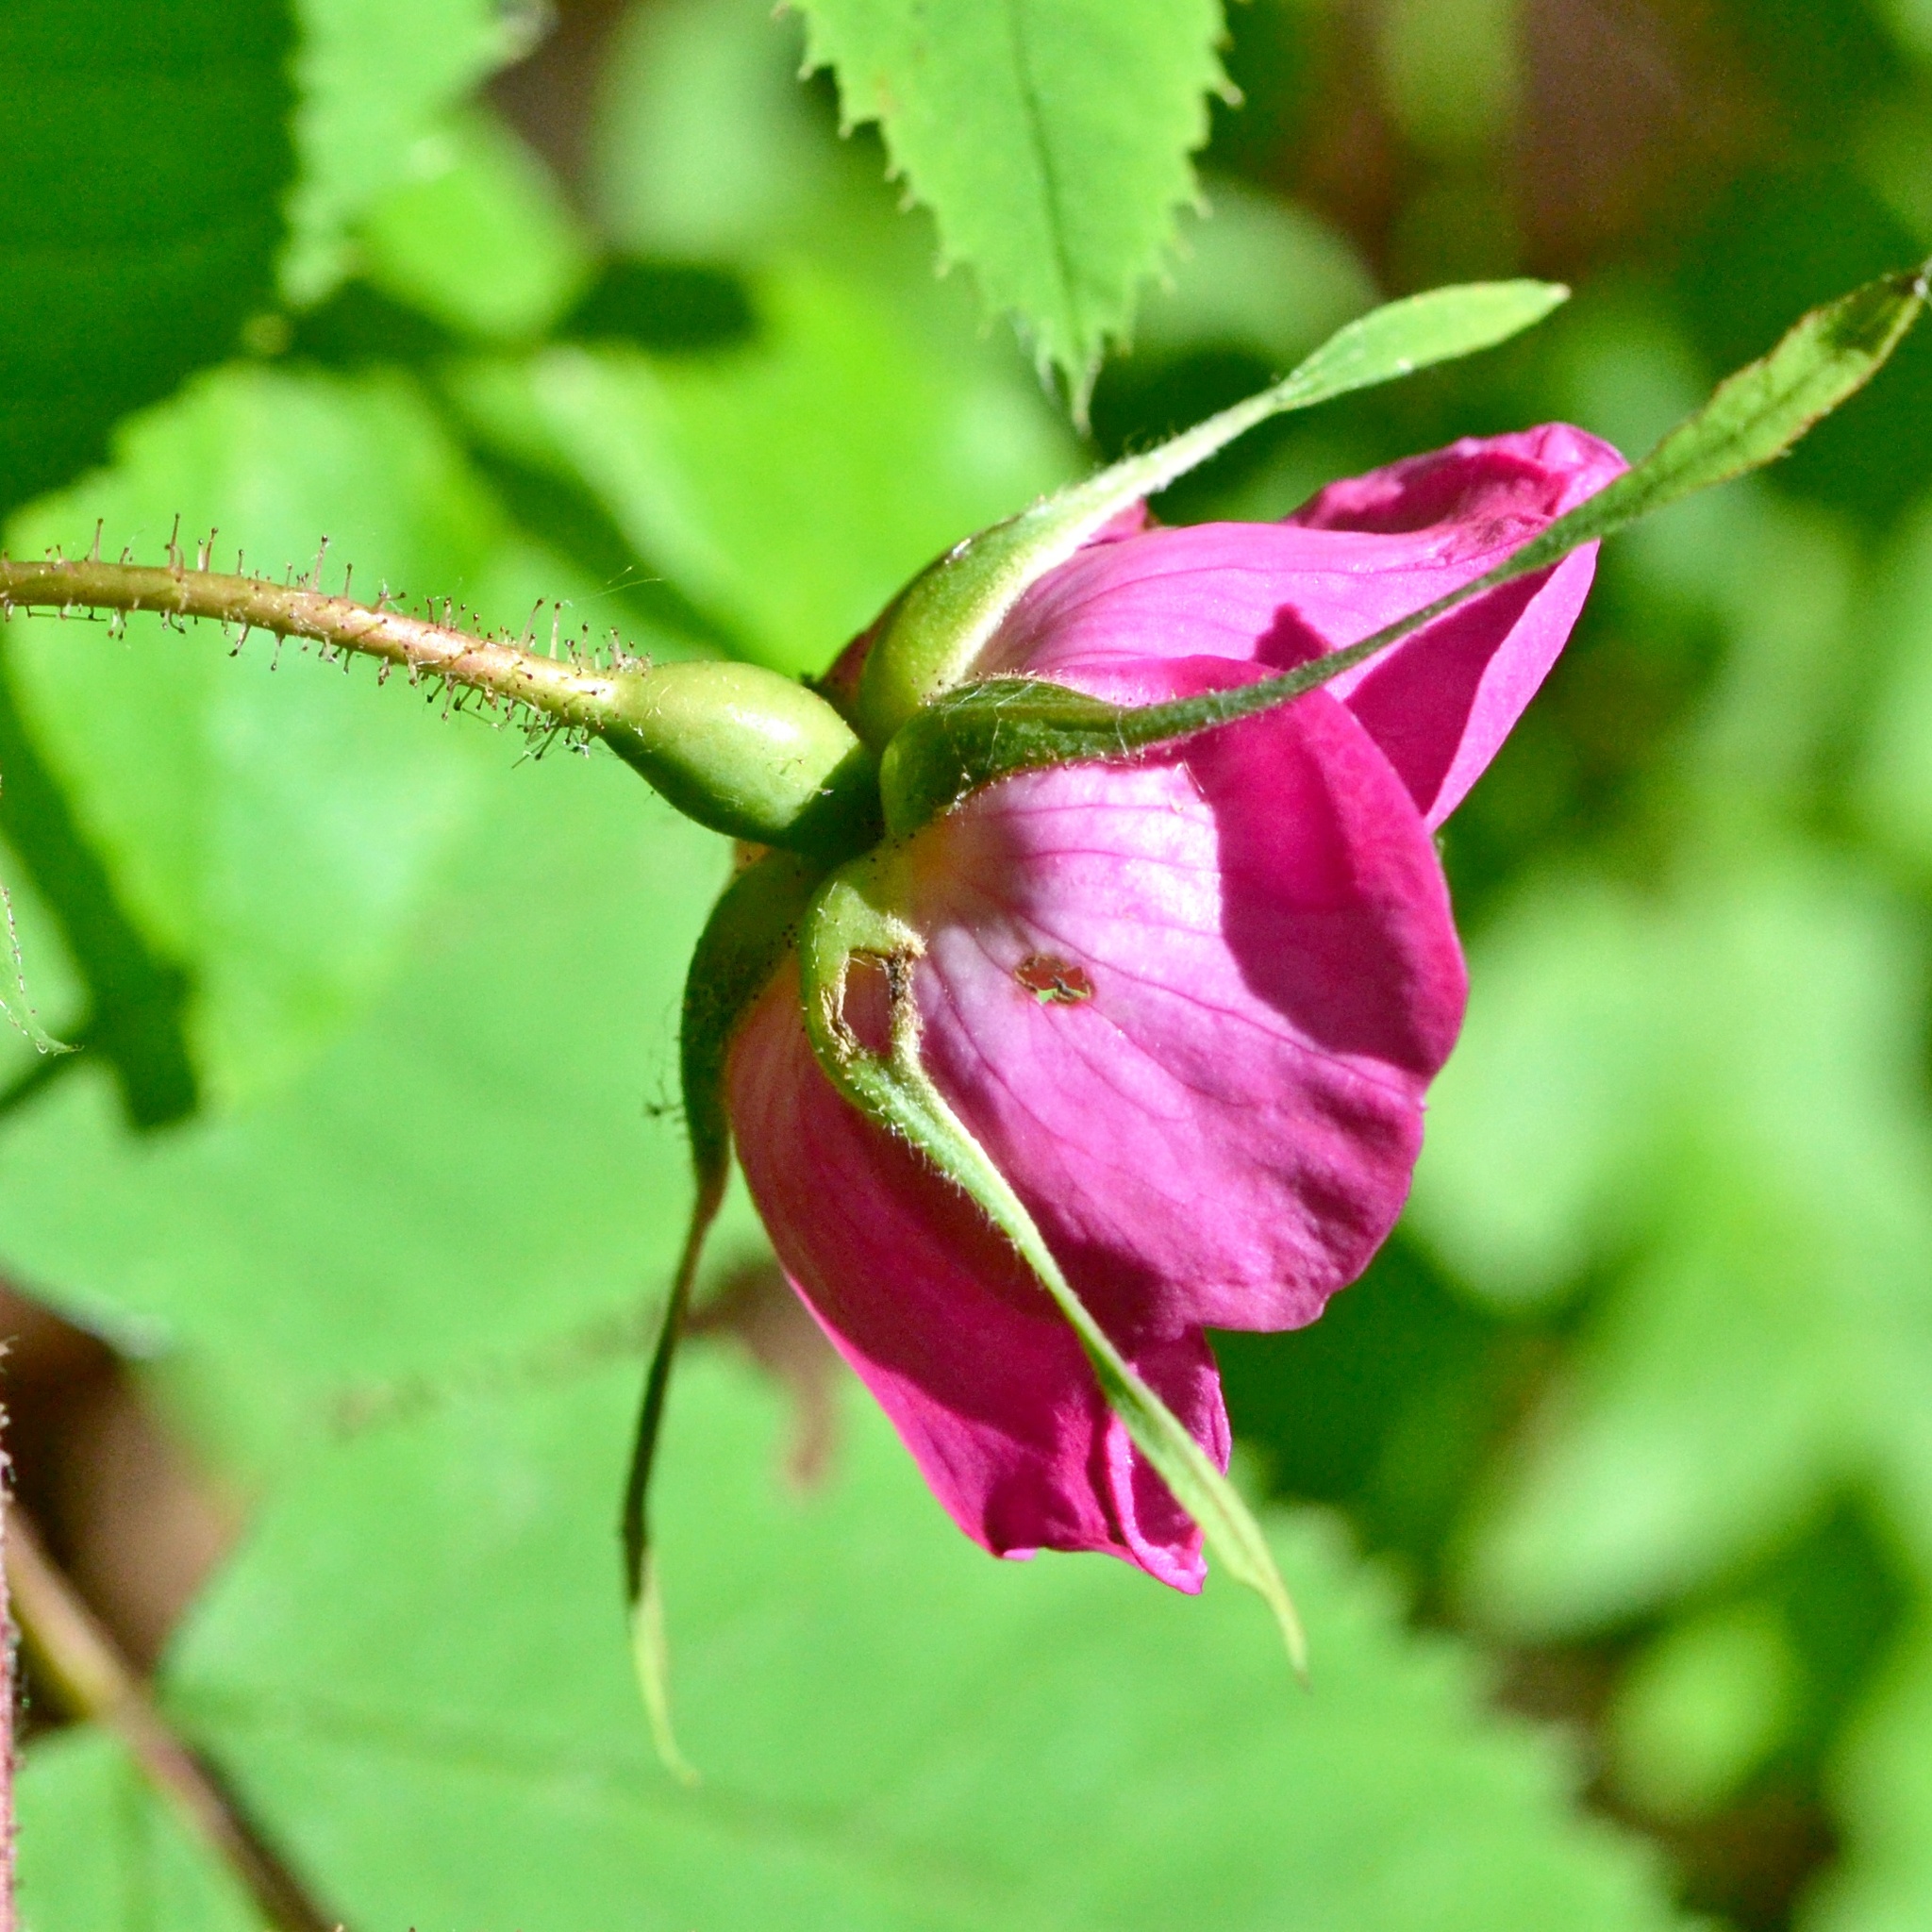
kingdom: Plantae
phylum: Tracheophyta
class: Magnoliopsida
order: Rosales
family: Rosaceae
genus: Rosa
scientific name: Rosa pendulina
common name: Alpine rose
